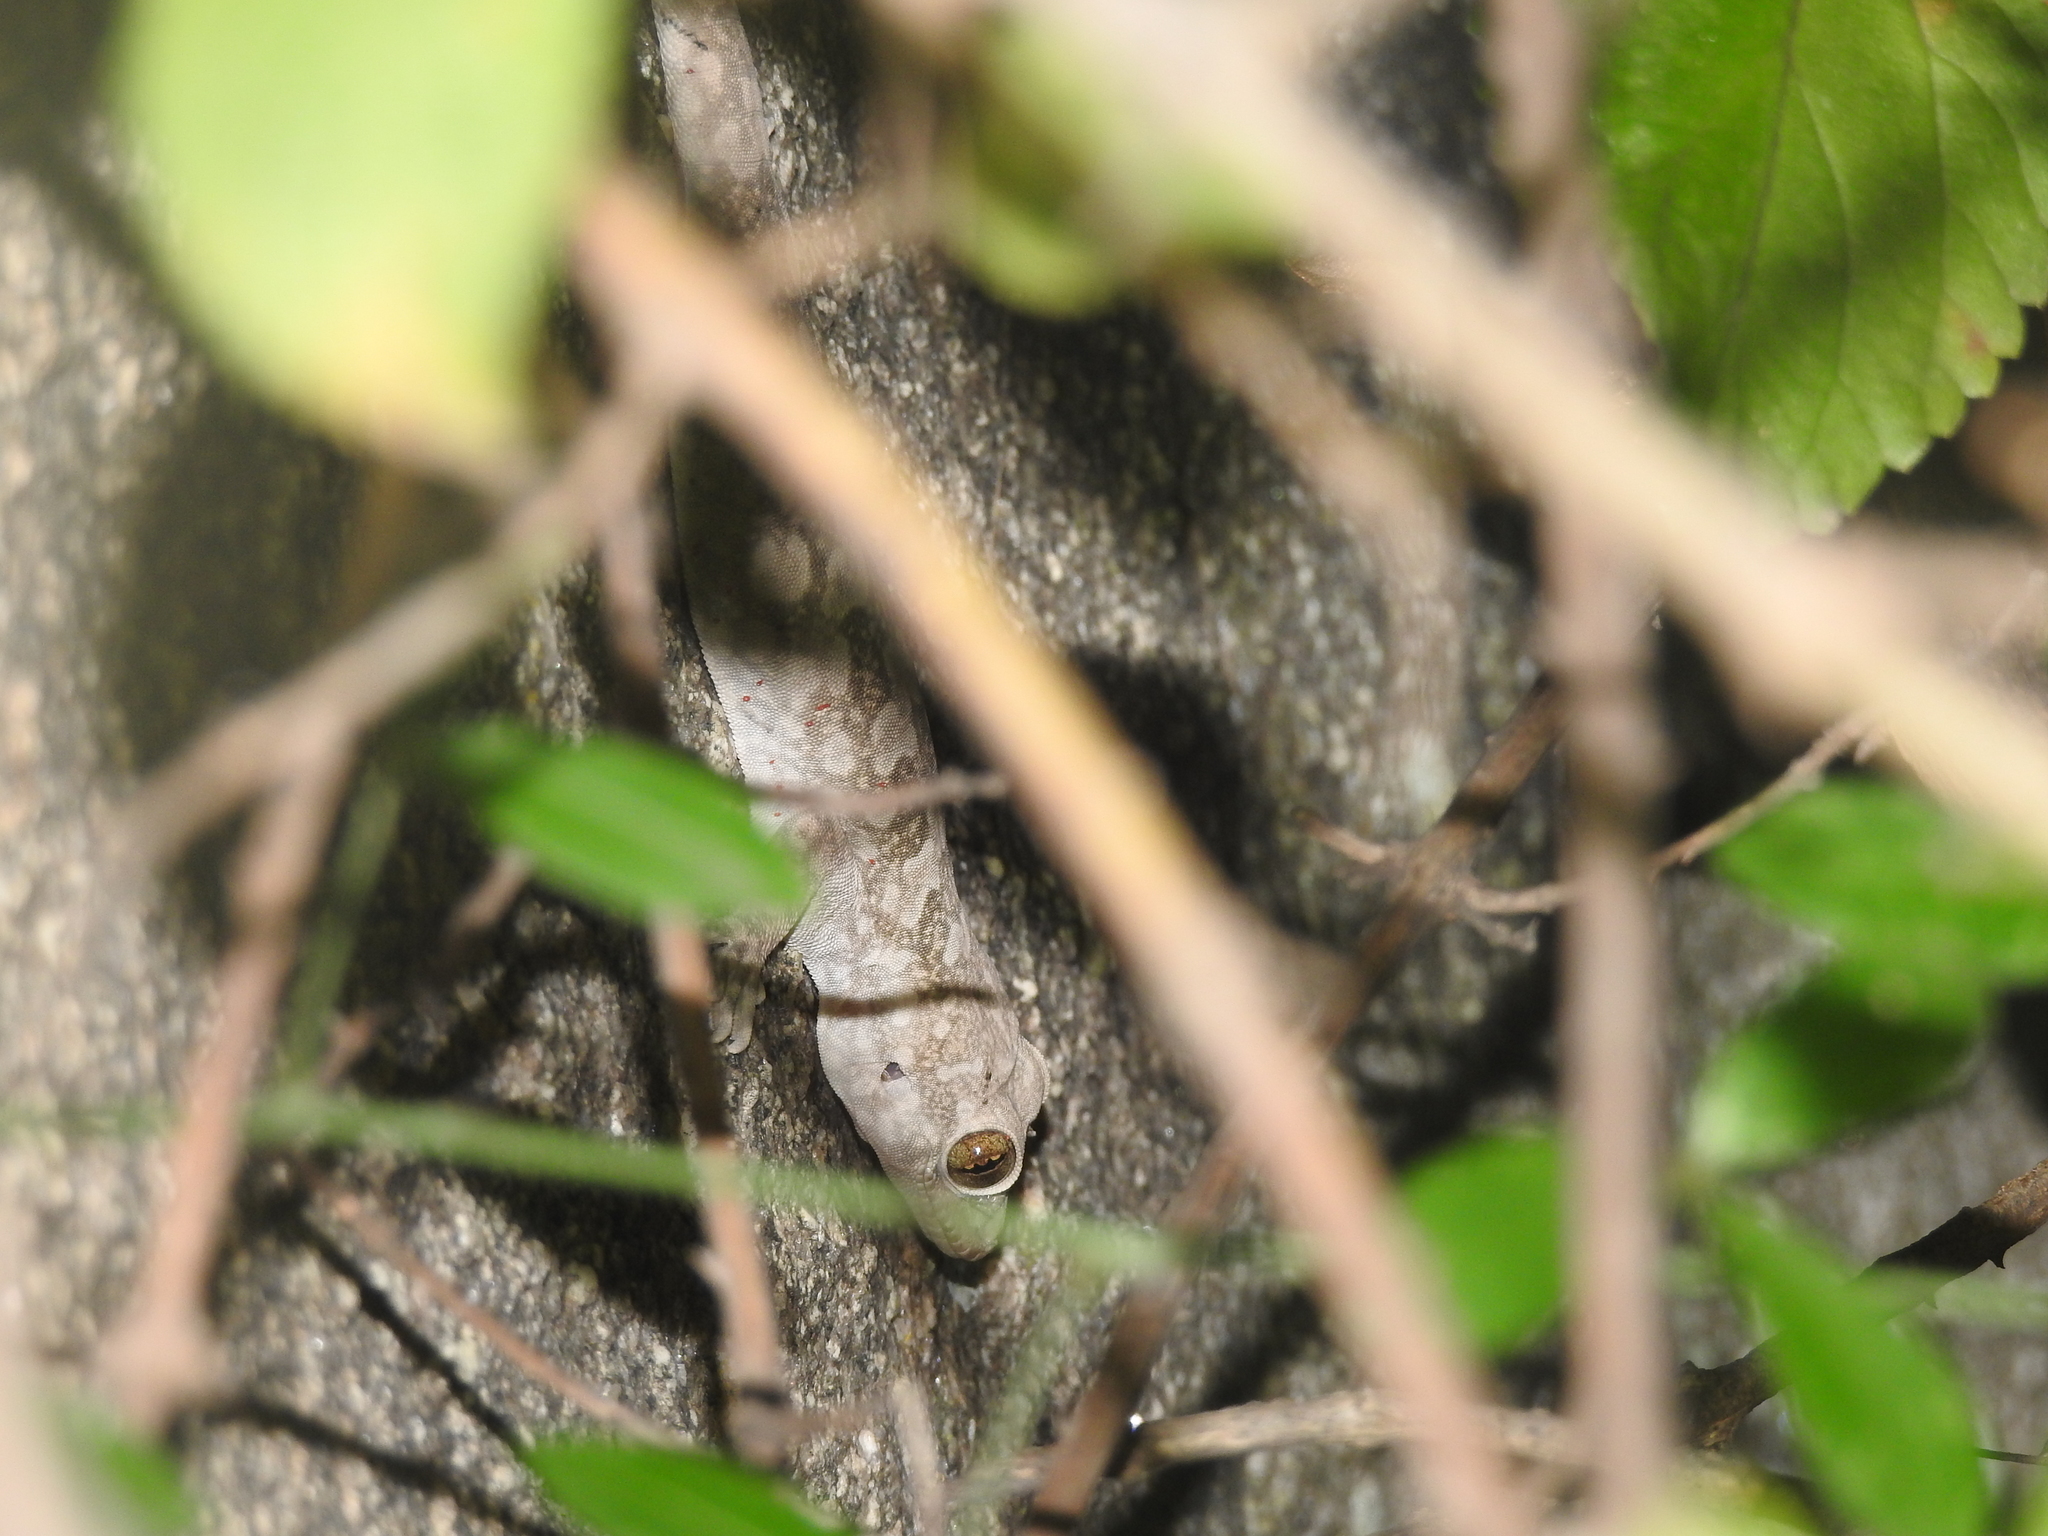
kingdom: Animalia
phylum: Chordata
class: Squamata
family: Gekkonidae
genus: Hemidactylus
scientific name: Hemidactylus giganteus
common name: Giant gecko
